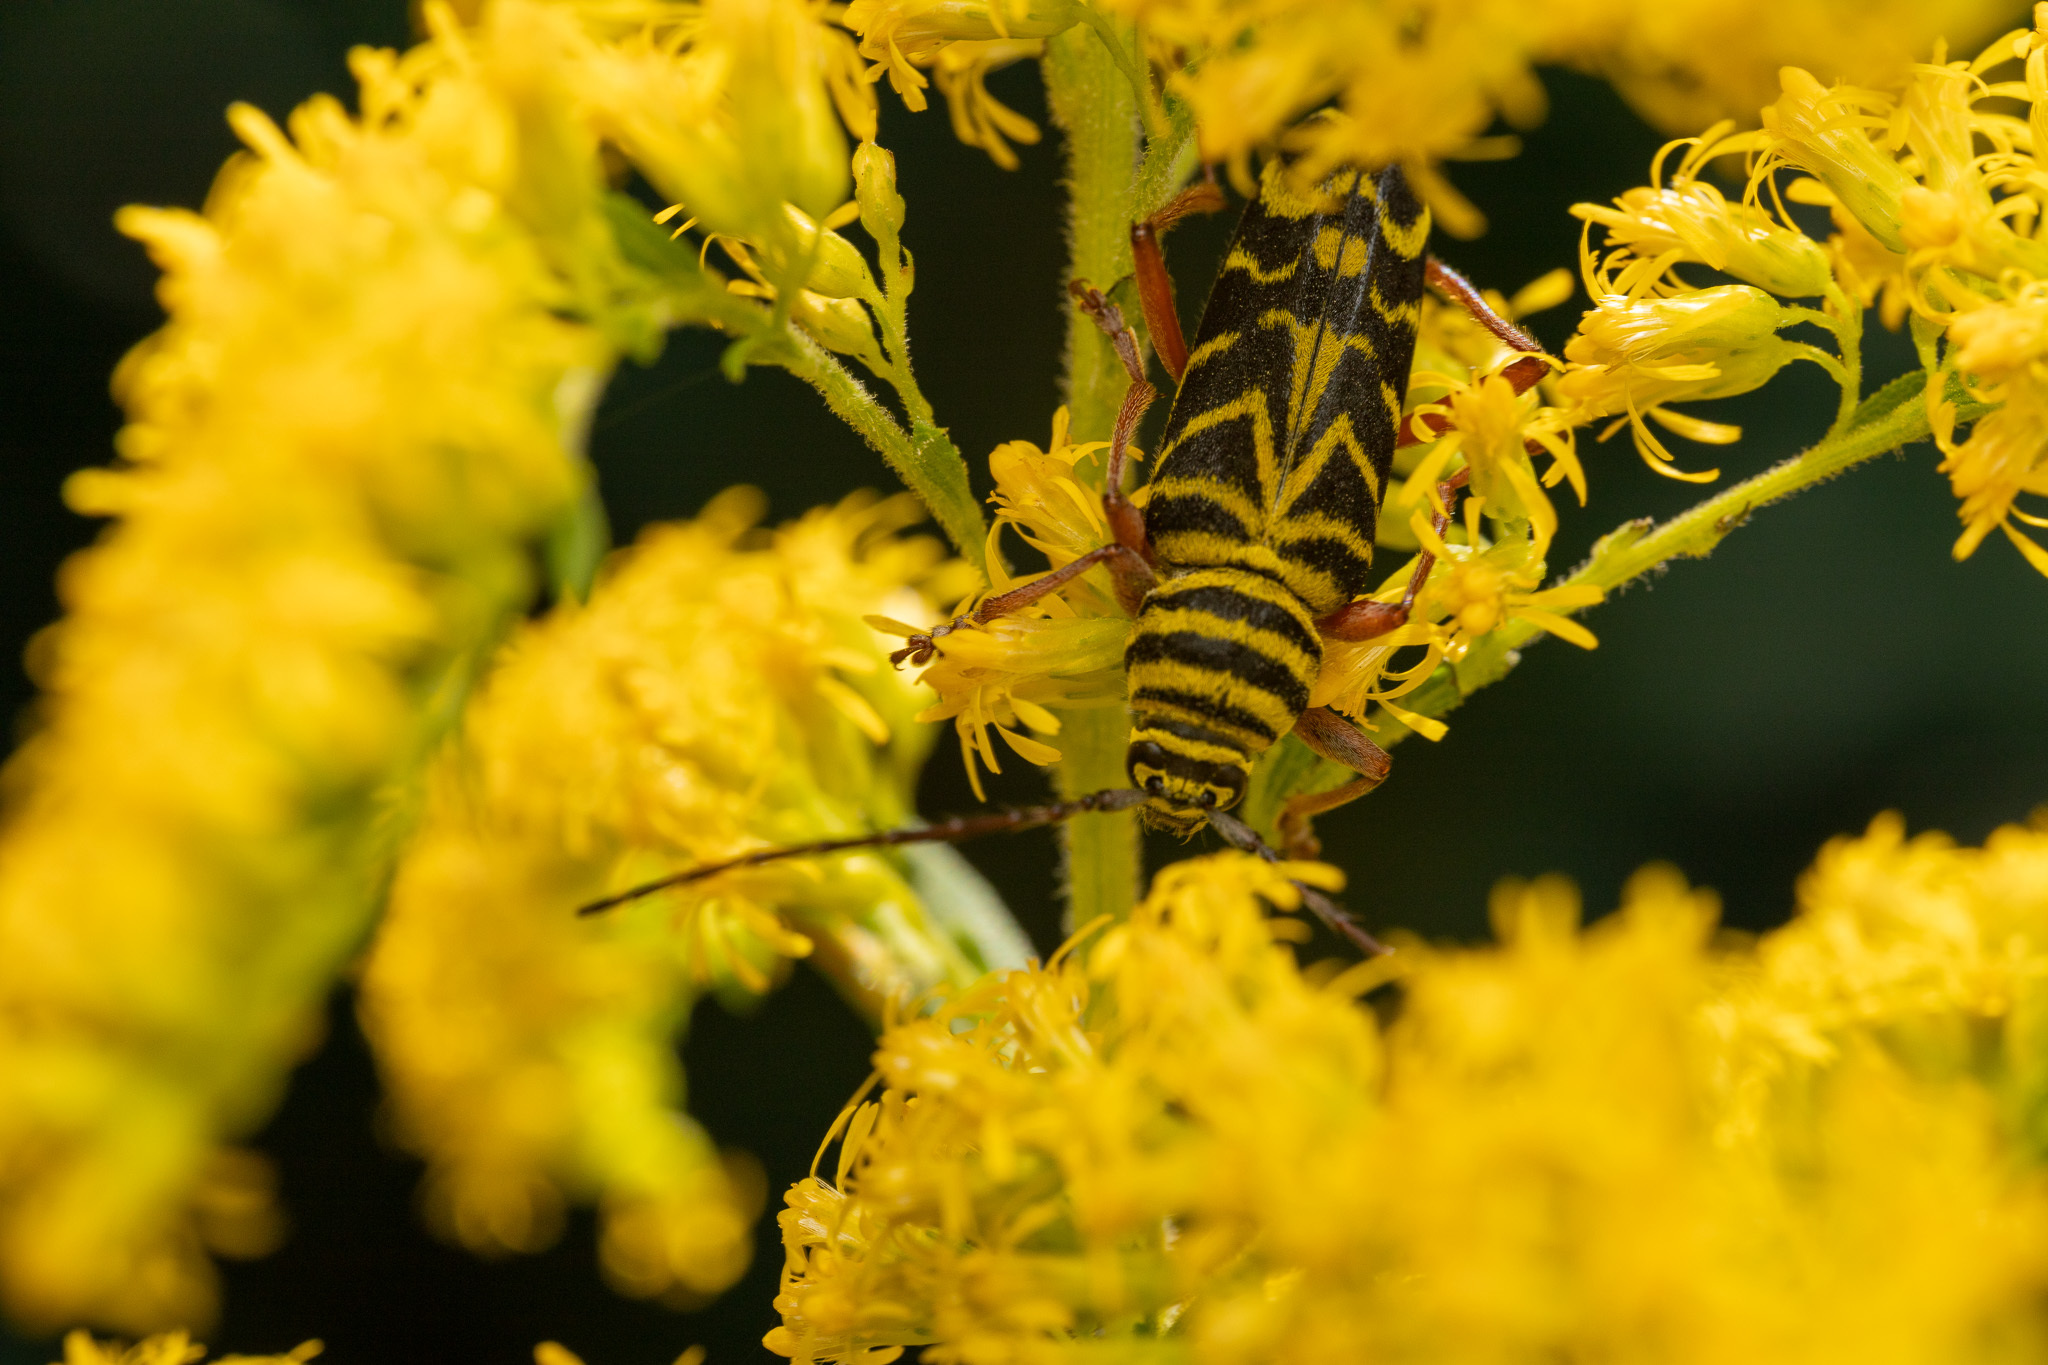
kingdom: Animalia
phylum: Arthropoda
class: Insecta
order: Coleoptera
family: Cerambycidae
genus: Megacyllene
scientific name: Megacyllene robiniae
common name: Locust borer
